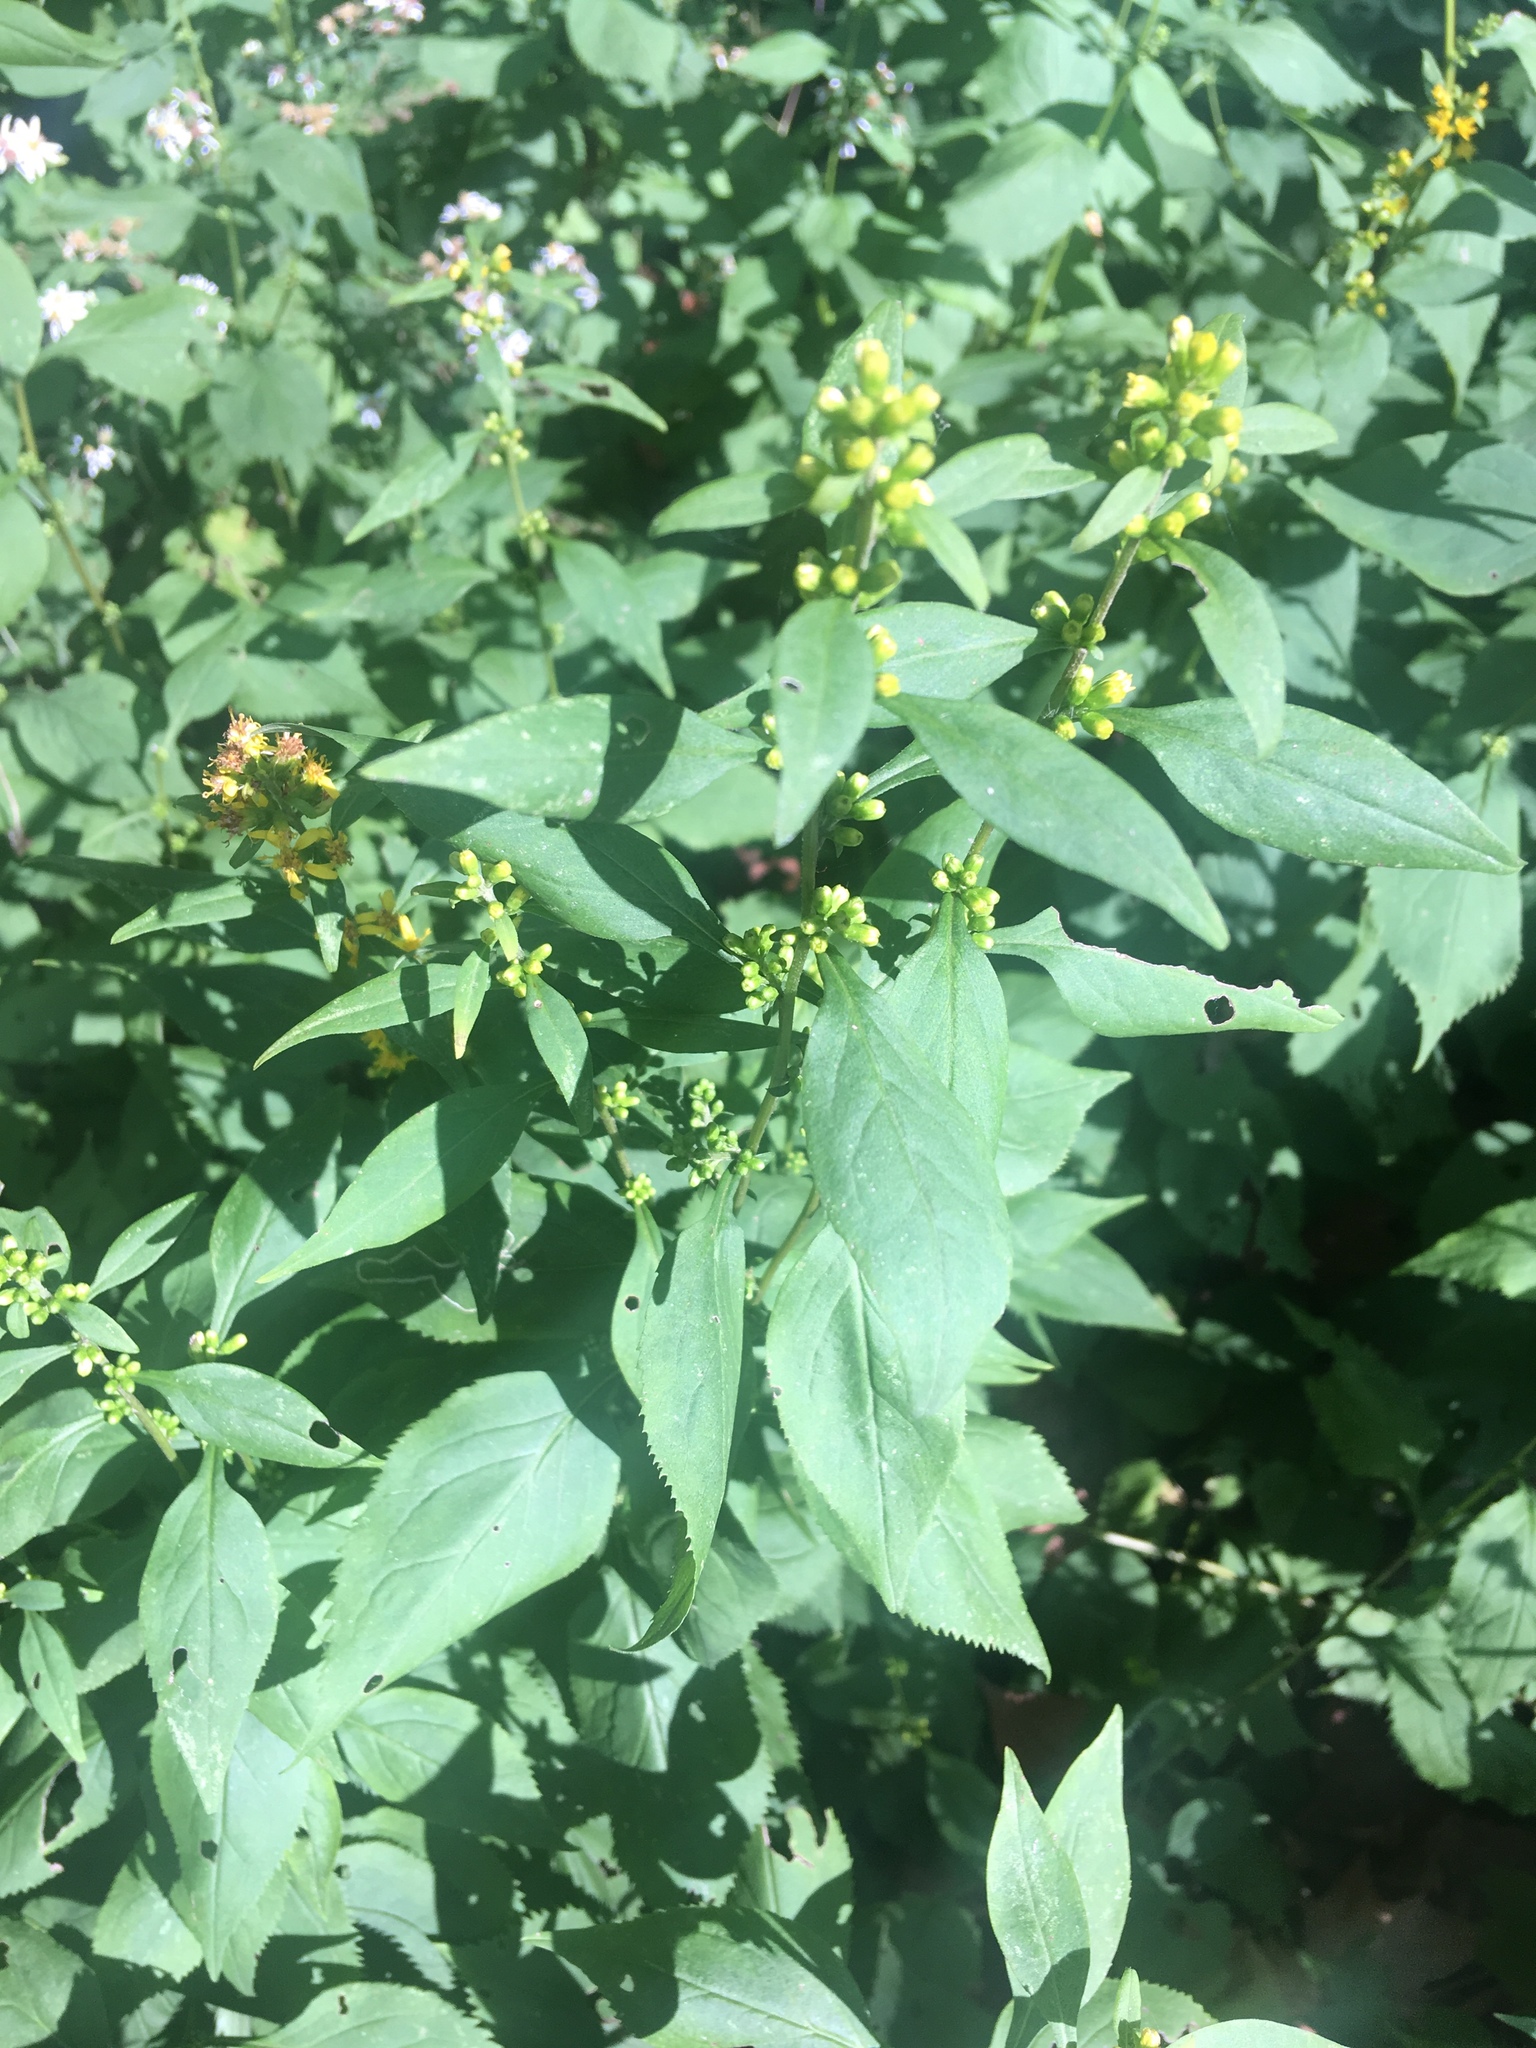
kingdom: Plantae
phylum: Tracheophyta
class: Magnoliopsida
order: Asterales
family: Asteraceae
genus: Solidago
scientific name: Solidago flexicaulis
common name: Zig-zag goldenrod
